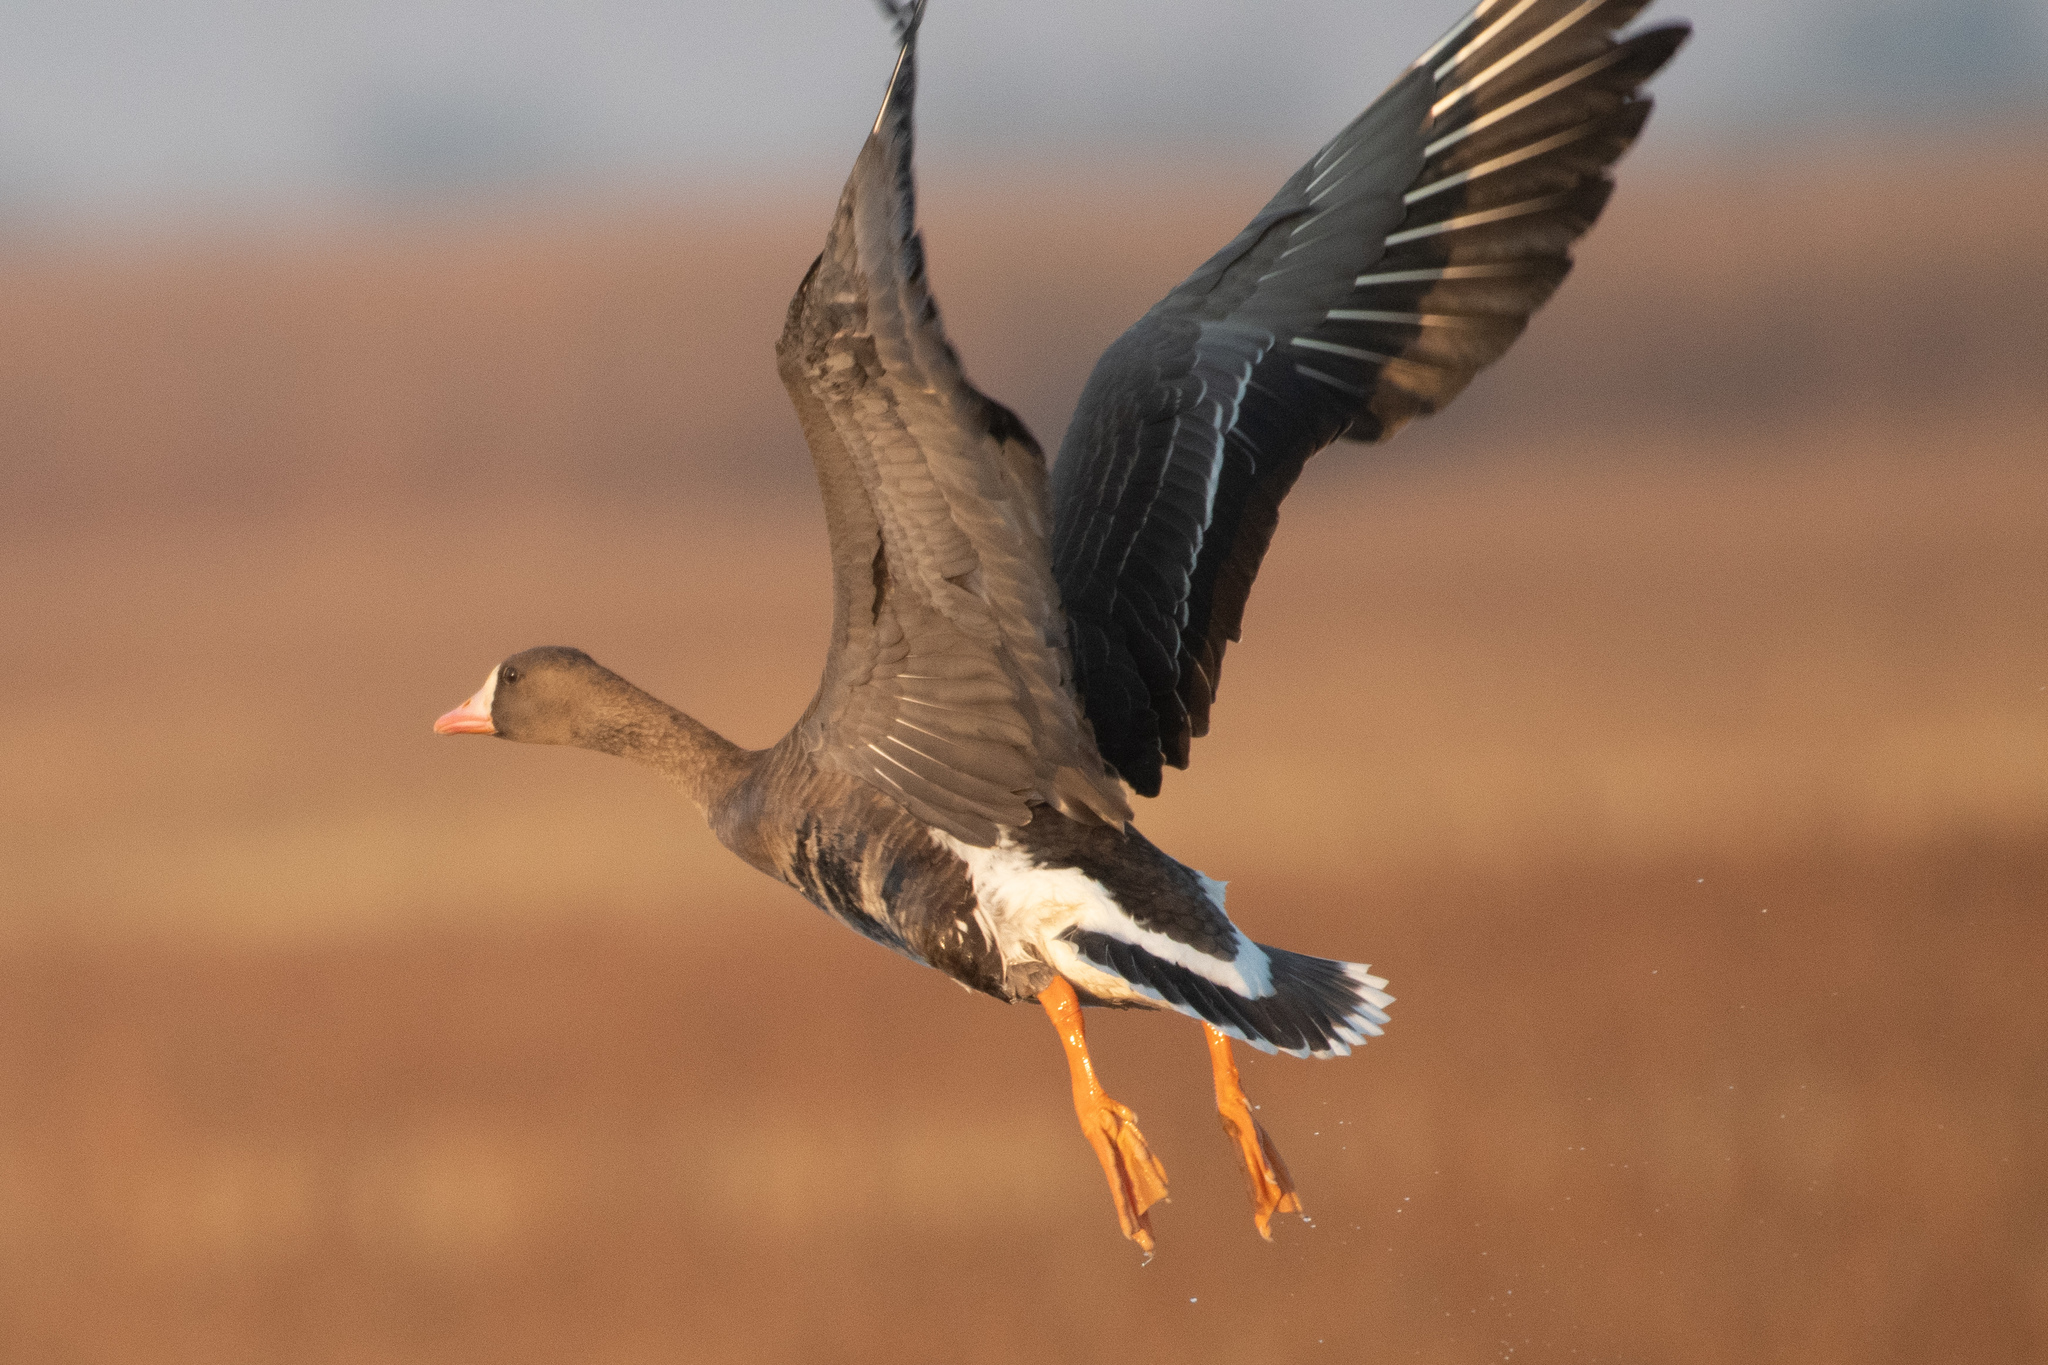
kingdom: Animalia
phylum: Chordata
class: Aves
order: Anseriformes
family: Anatidae
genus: Anser
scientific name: Anser albifrons
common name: Greater white-fronted goose
